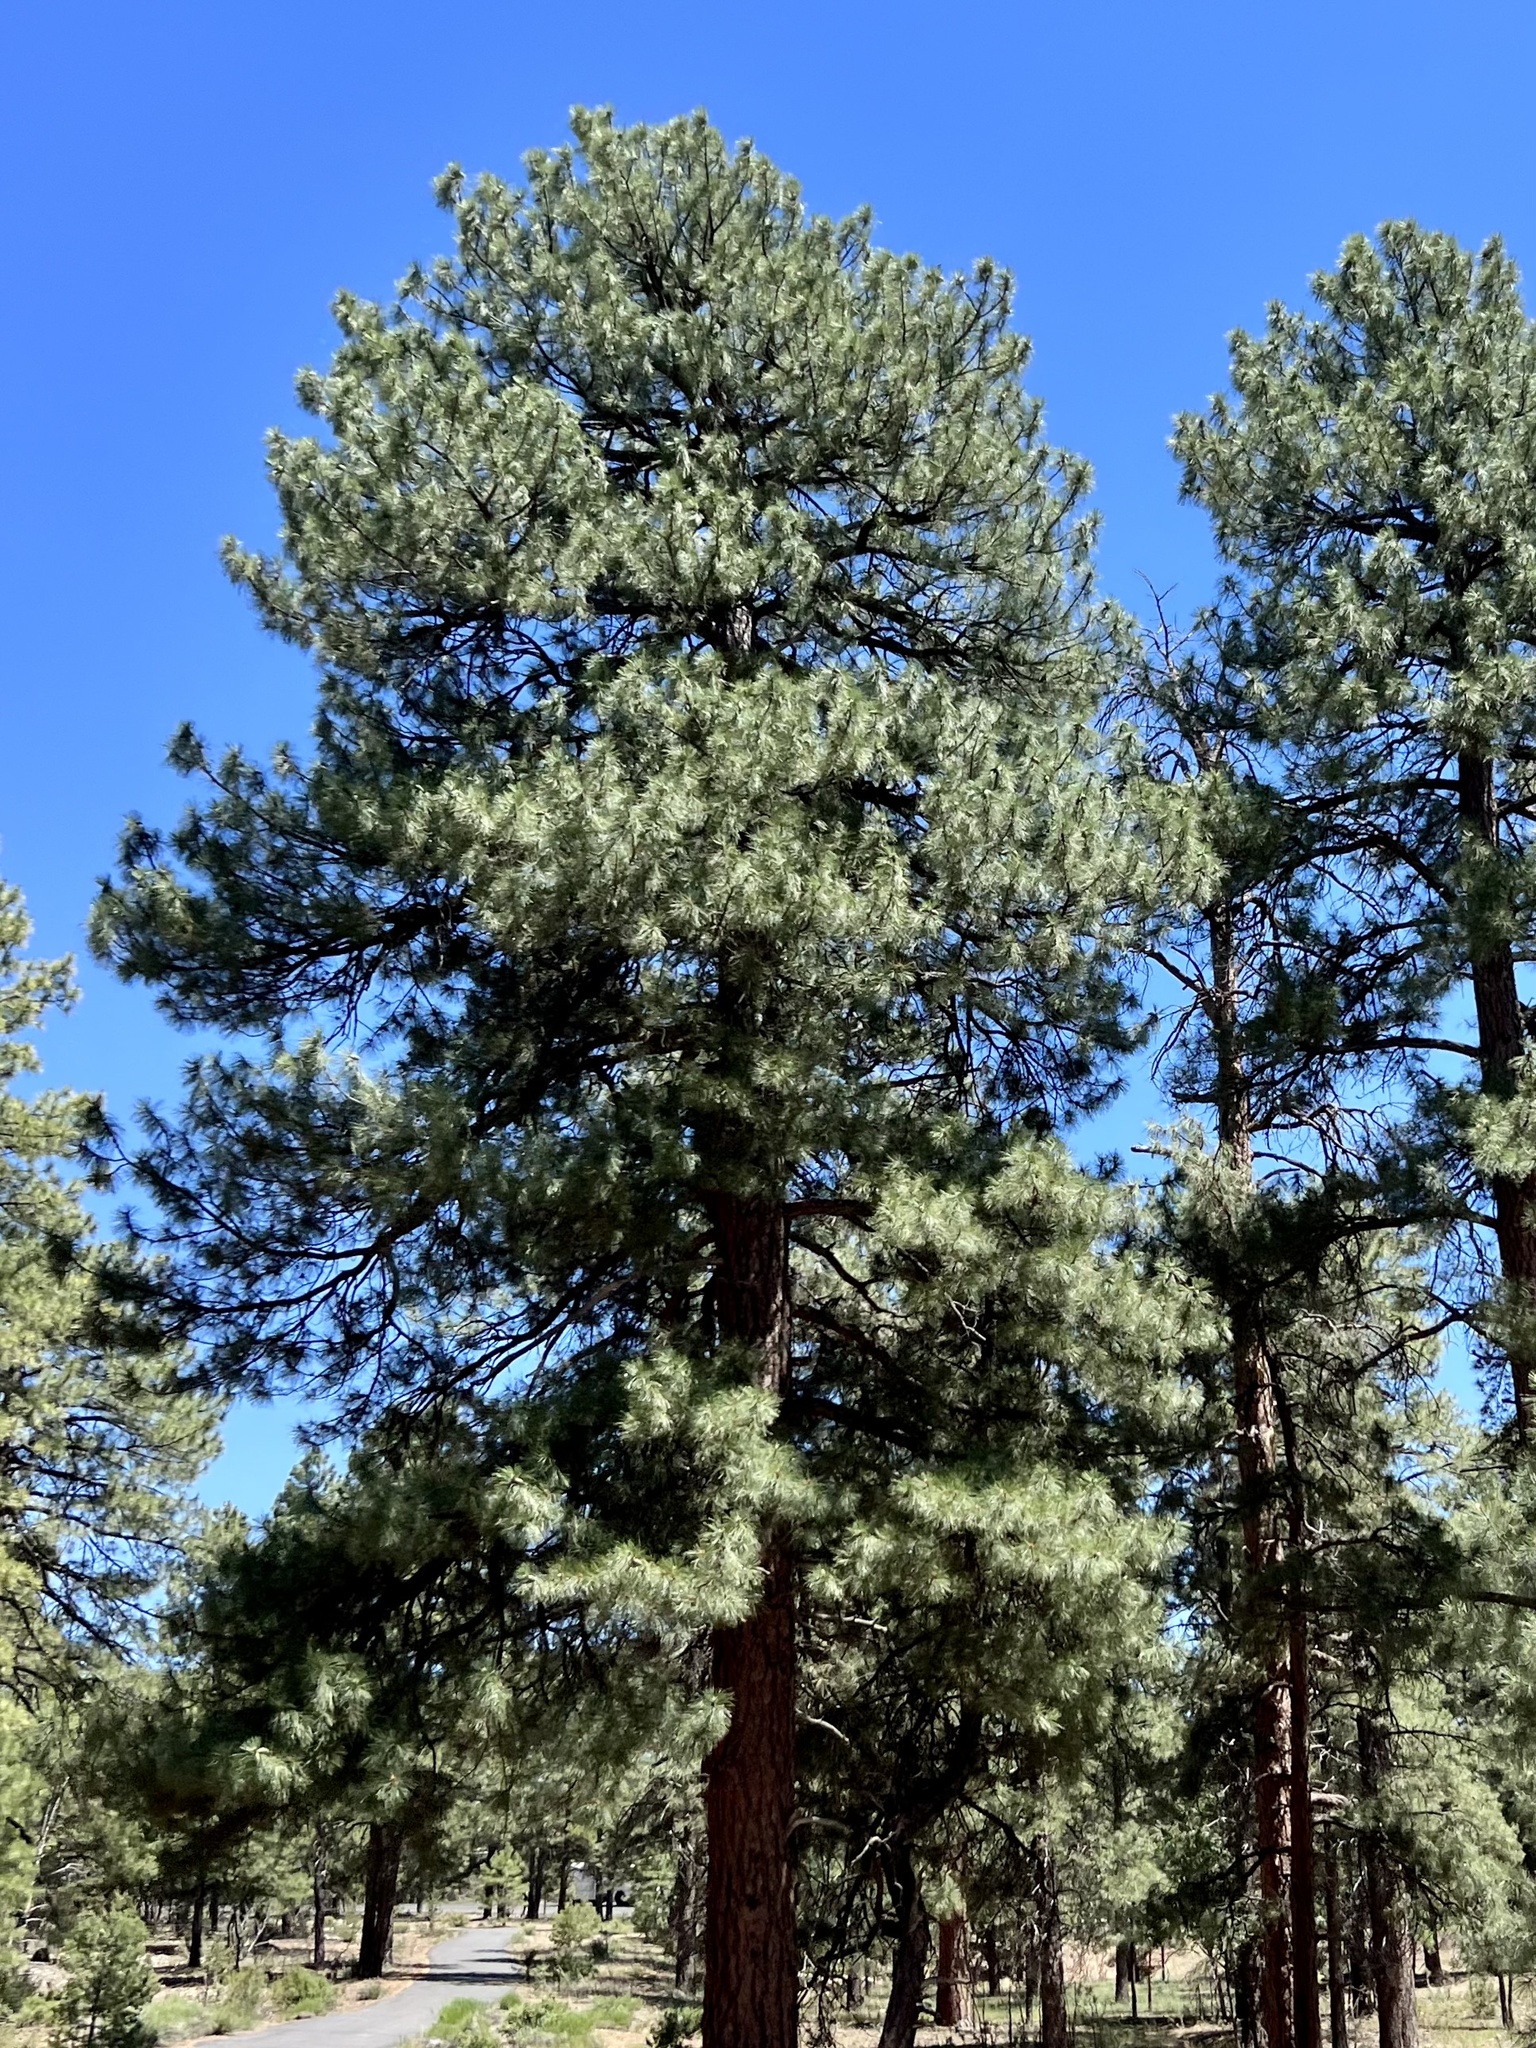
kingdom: Plantae
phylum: Tracheophyta
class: Pinopsida
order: Pinales
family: Pinaceae
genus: Pinus
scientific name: Pinus ponderosa
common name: Western yellow-pine
